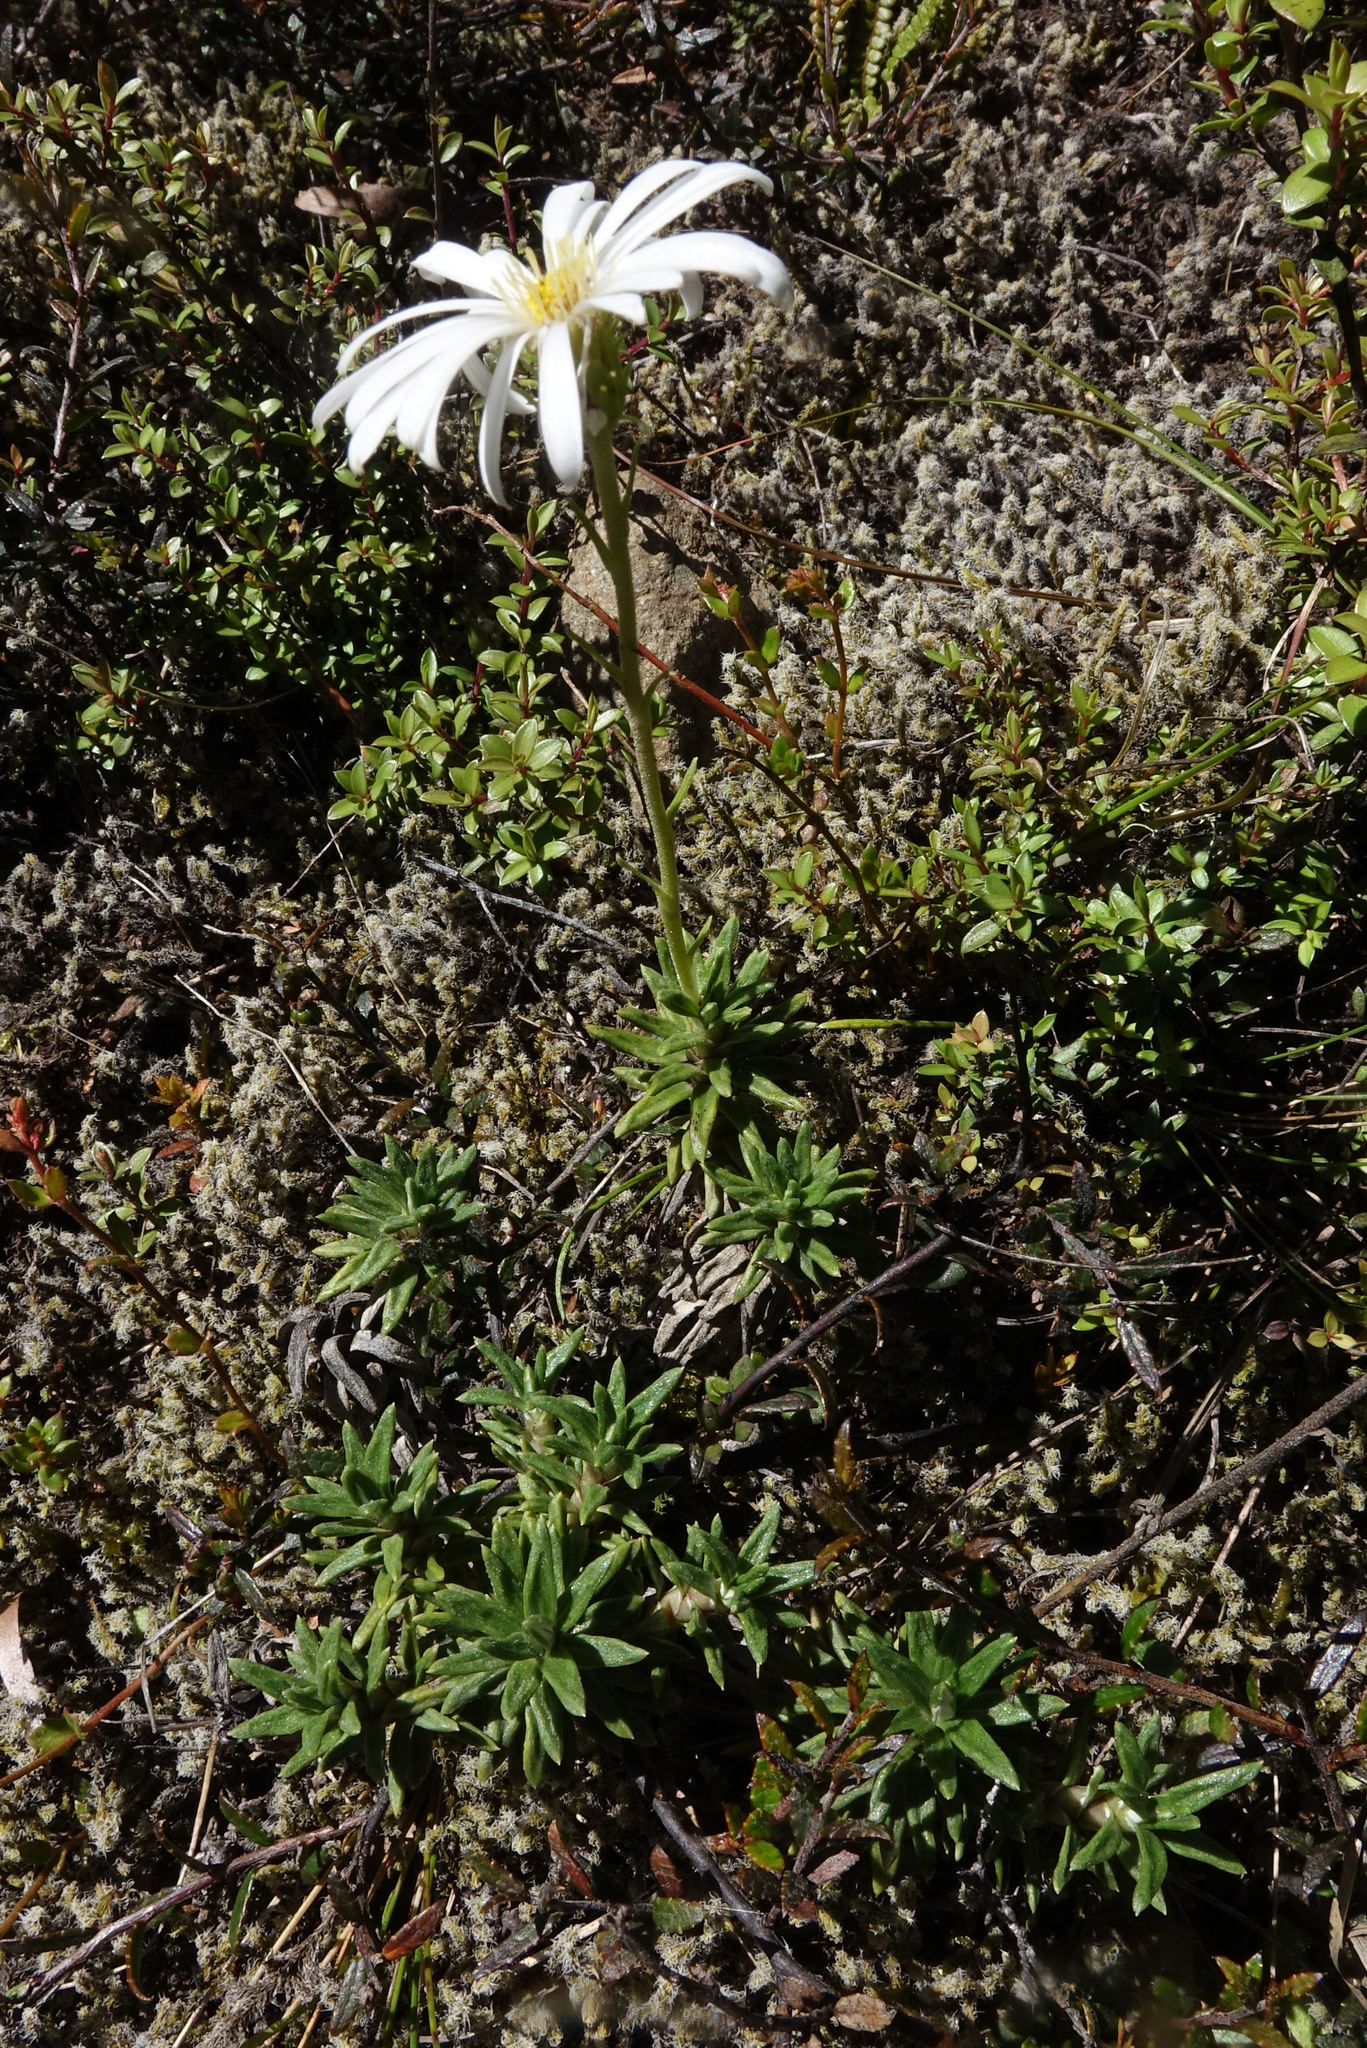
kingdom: Plantae
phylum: Tracheophyta
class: Magnoliopsida
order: Asterales
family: Asteraceae
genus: Celmisia
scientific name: Celmisia walkeri
